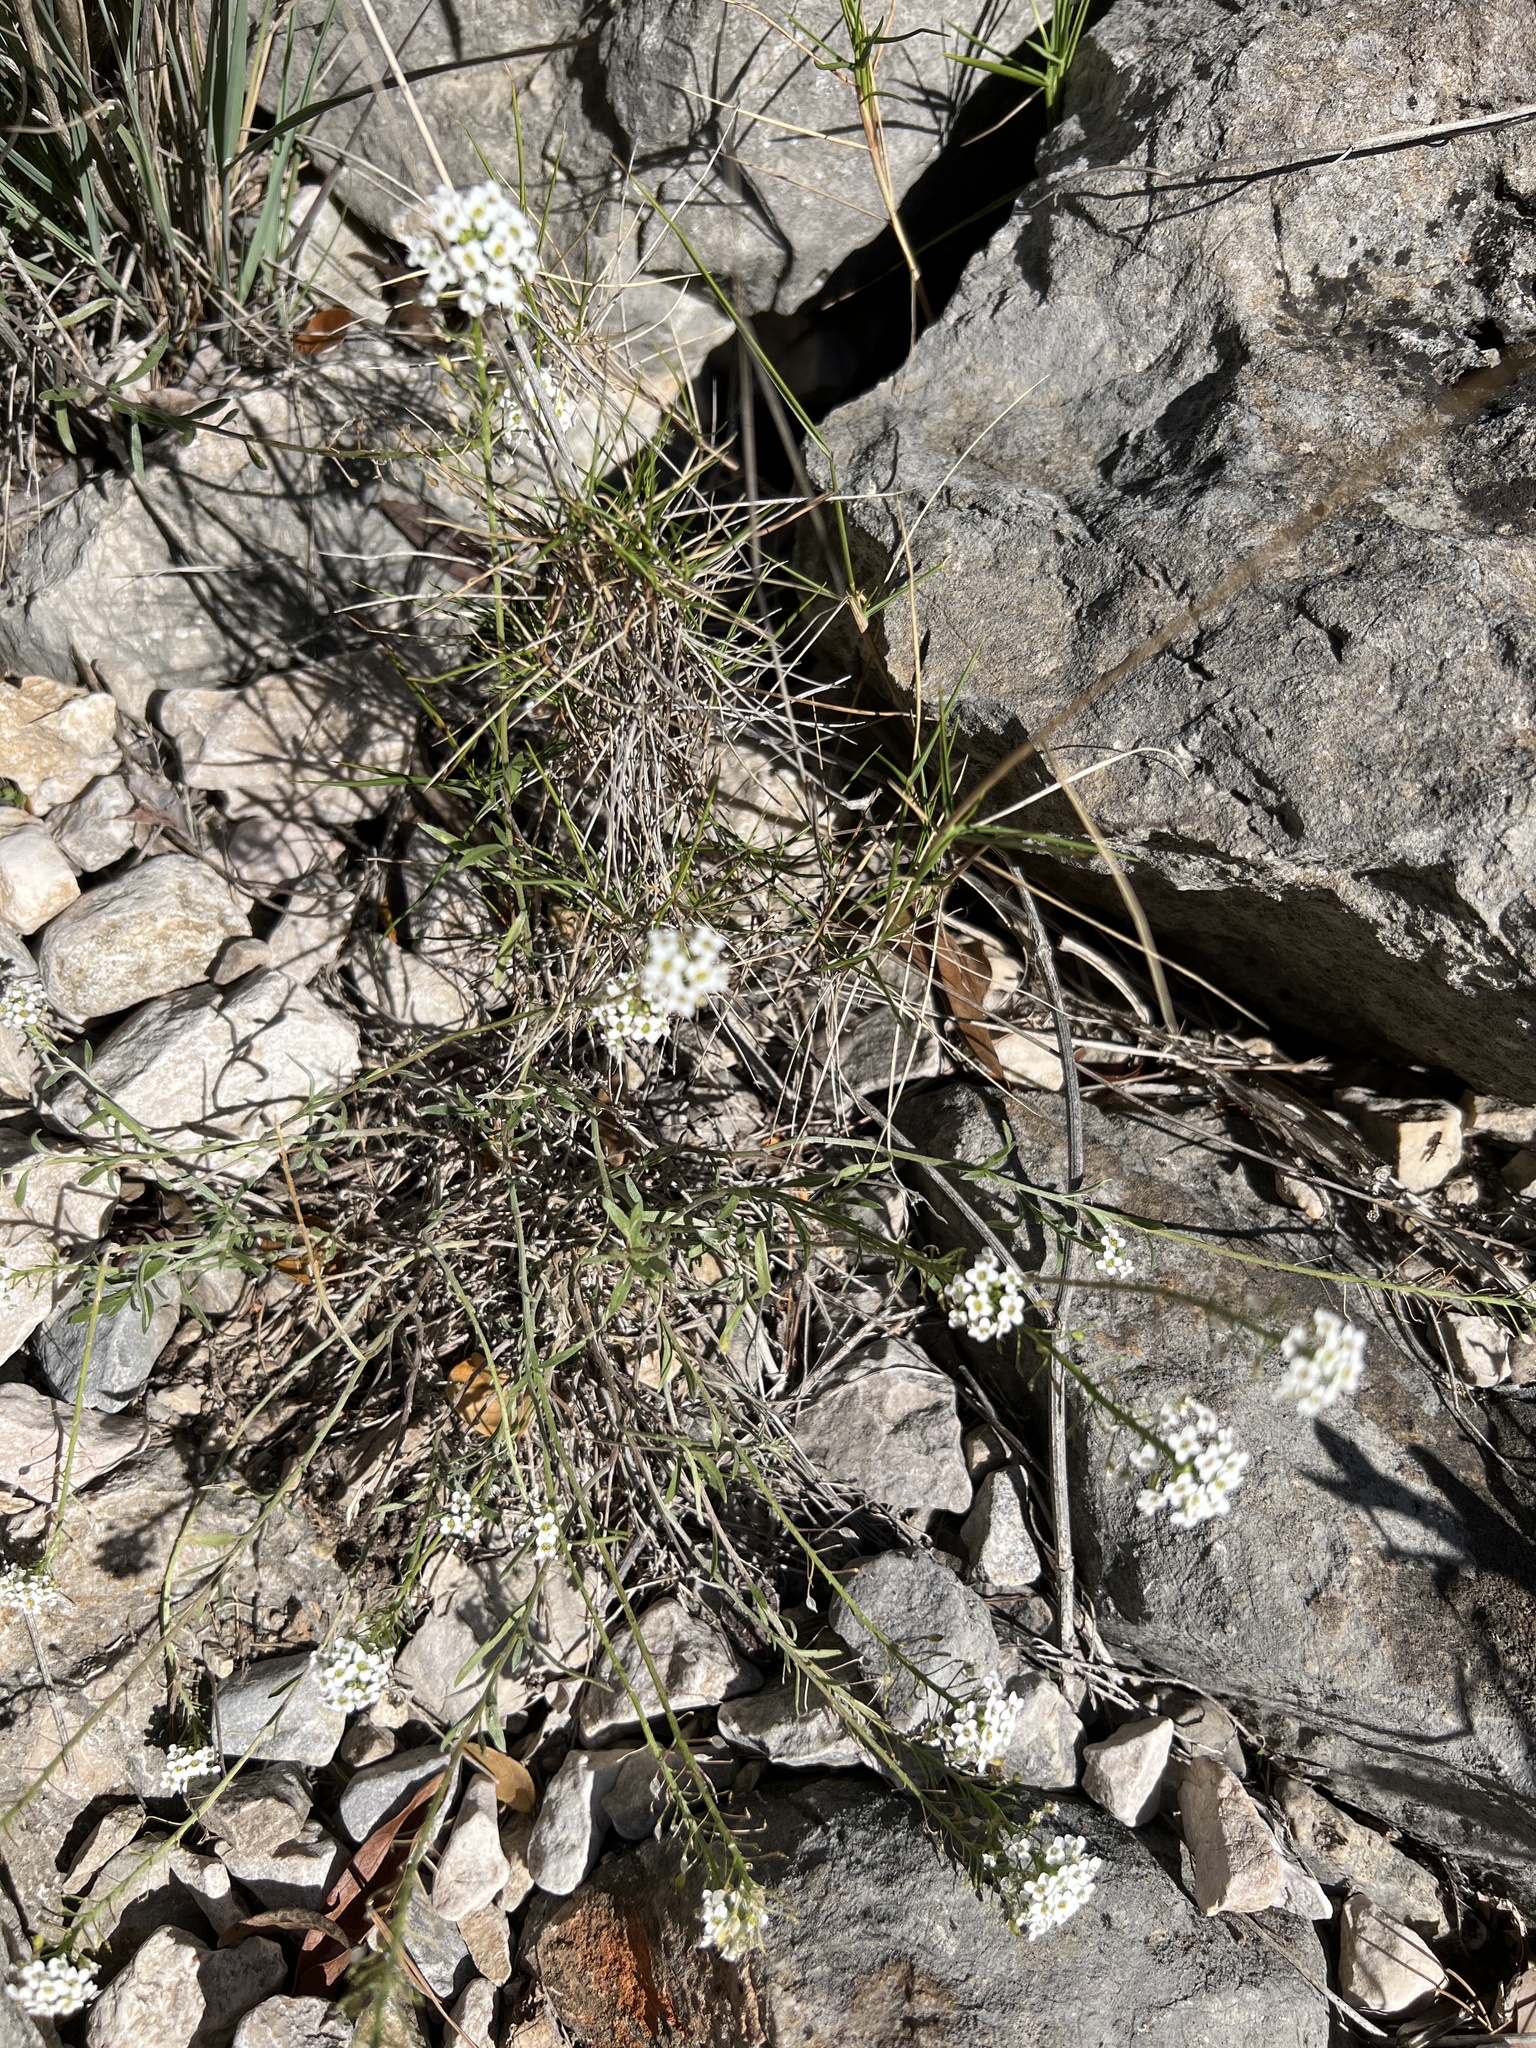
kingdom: Plantae
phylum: Tracheophyta
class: Magnoliopsida
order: Brassicales
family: Brassicaceae
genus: Lobularia
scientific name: Lobularia maritima
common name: Sweet alison
